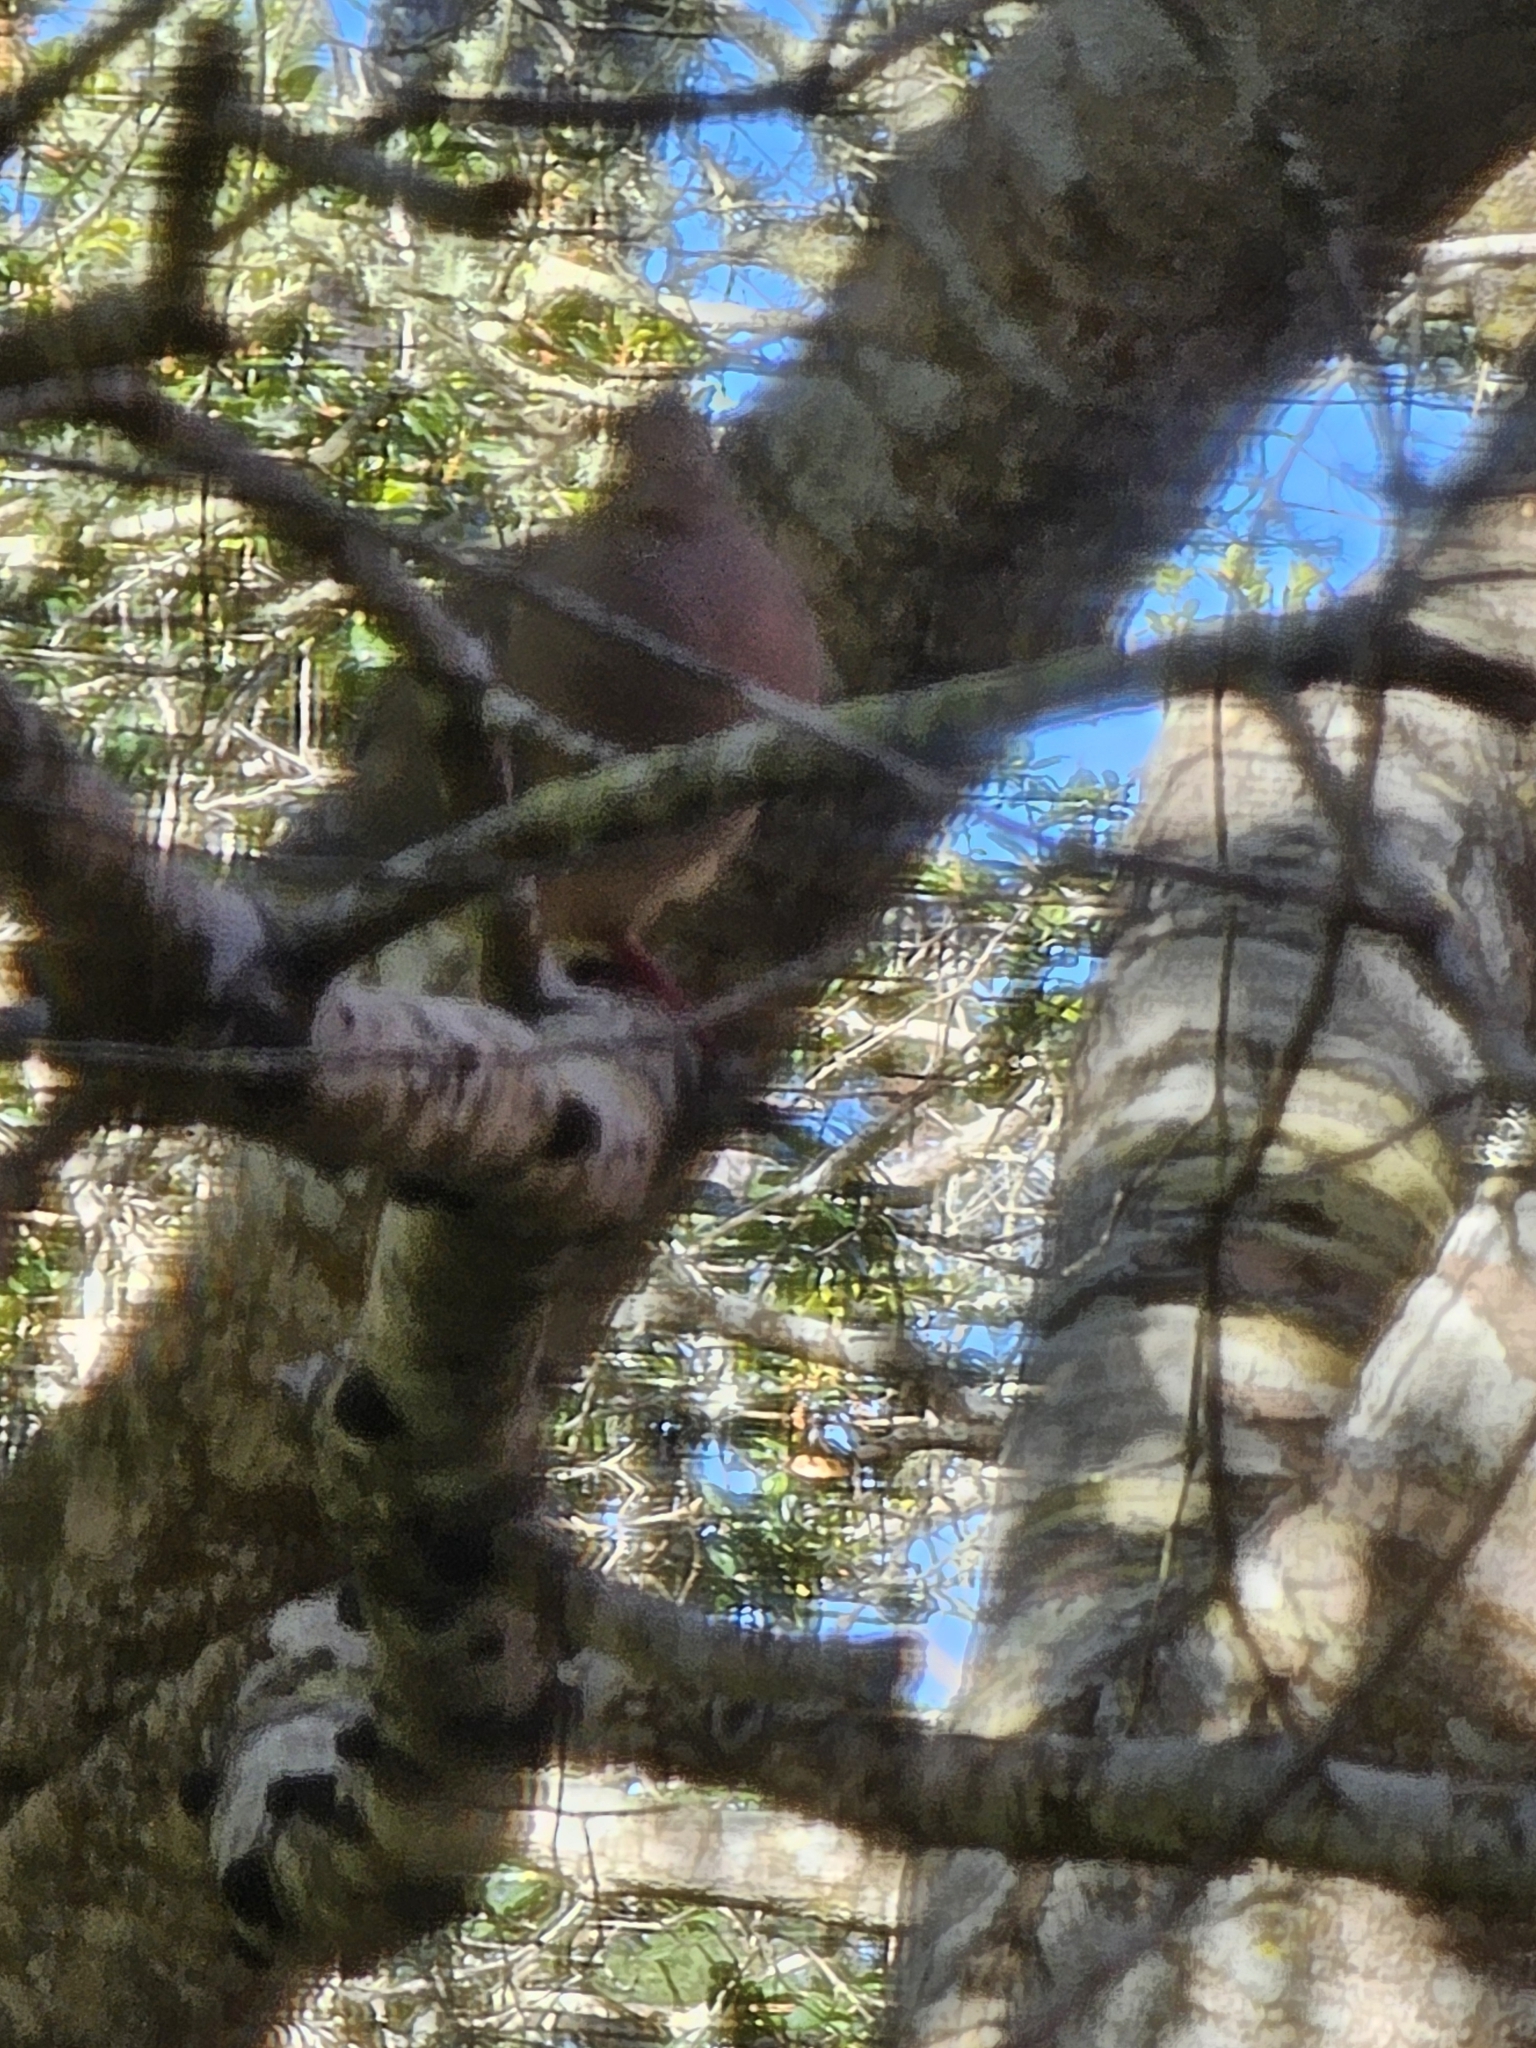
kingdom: Animalia
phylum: Chordata
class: Aves
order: Columbiformes
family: Columbidae
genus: Zenaida
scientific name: Zenaida macroura
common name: Mourning dove
